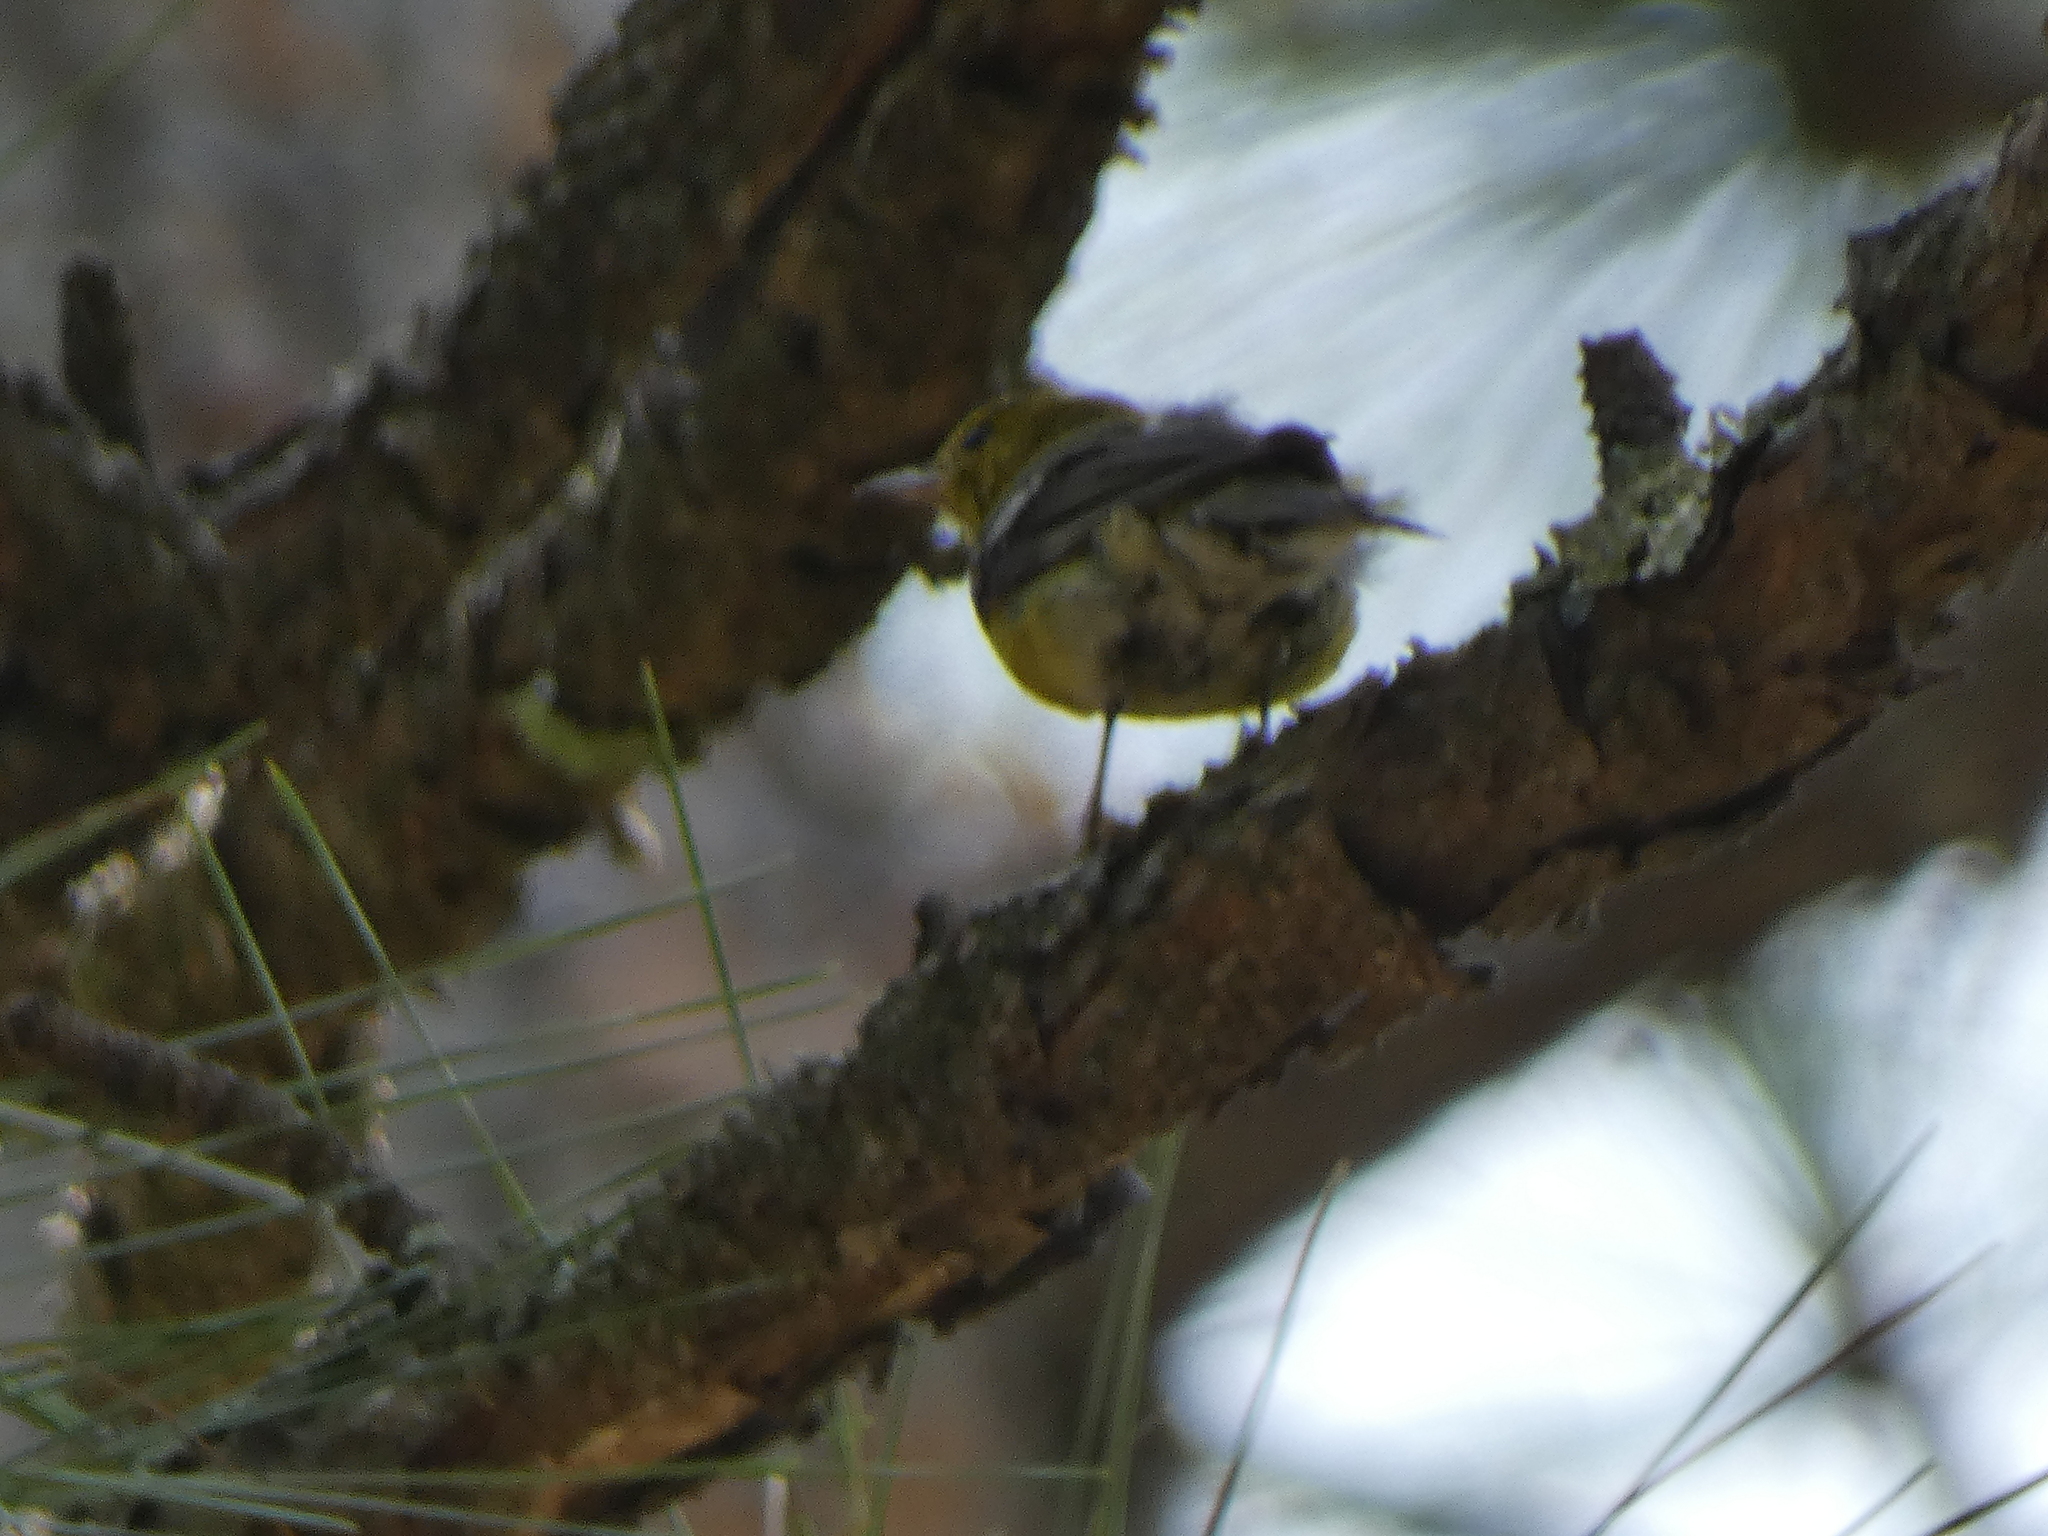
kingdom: Animalia
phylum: Chordata
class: Aves
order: Passeriformes
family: Parulidae
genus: Setophaga
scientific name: Setophaga pinus
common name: Pine warbler
